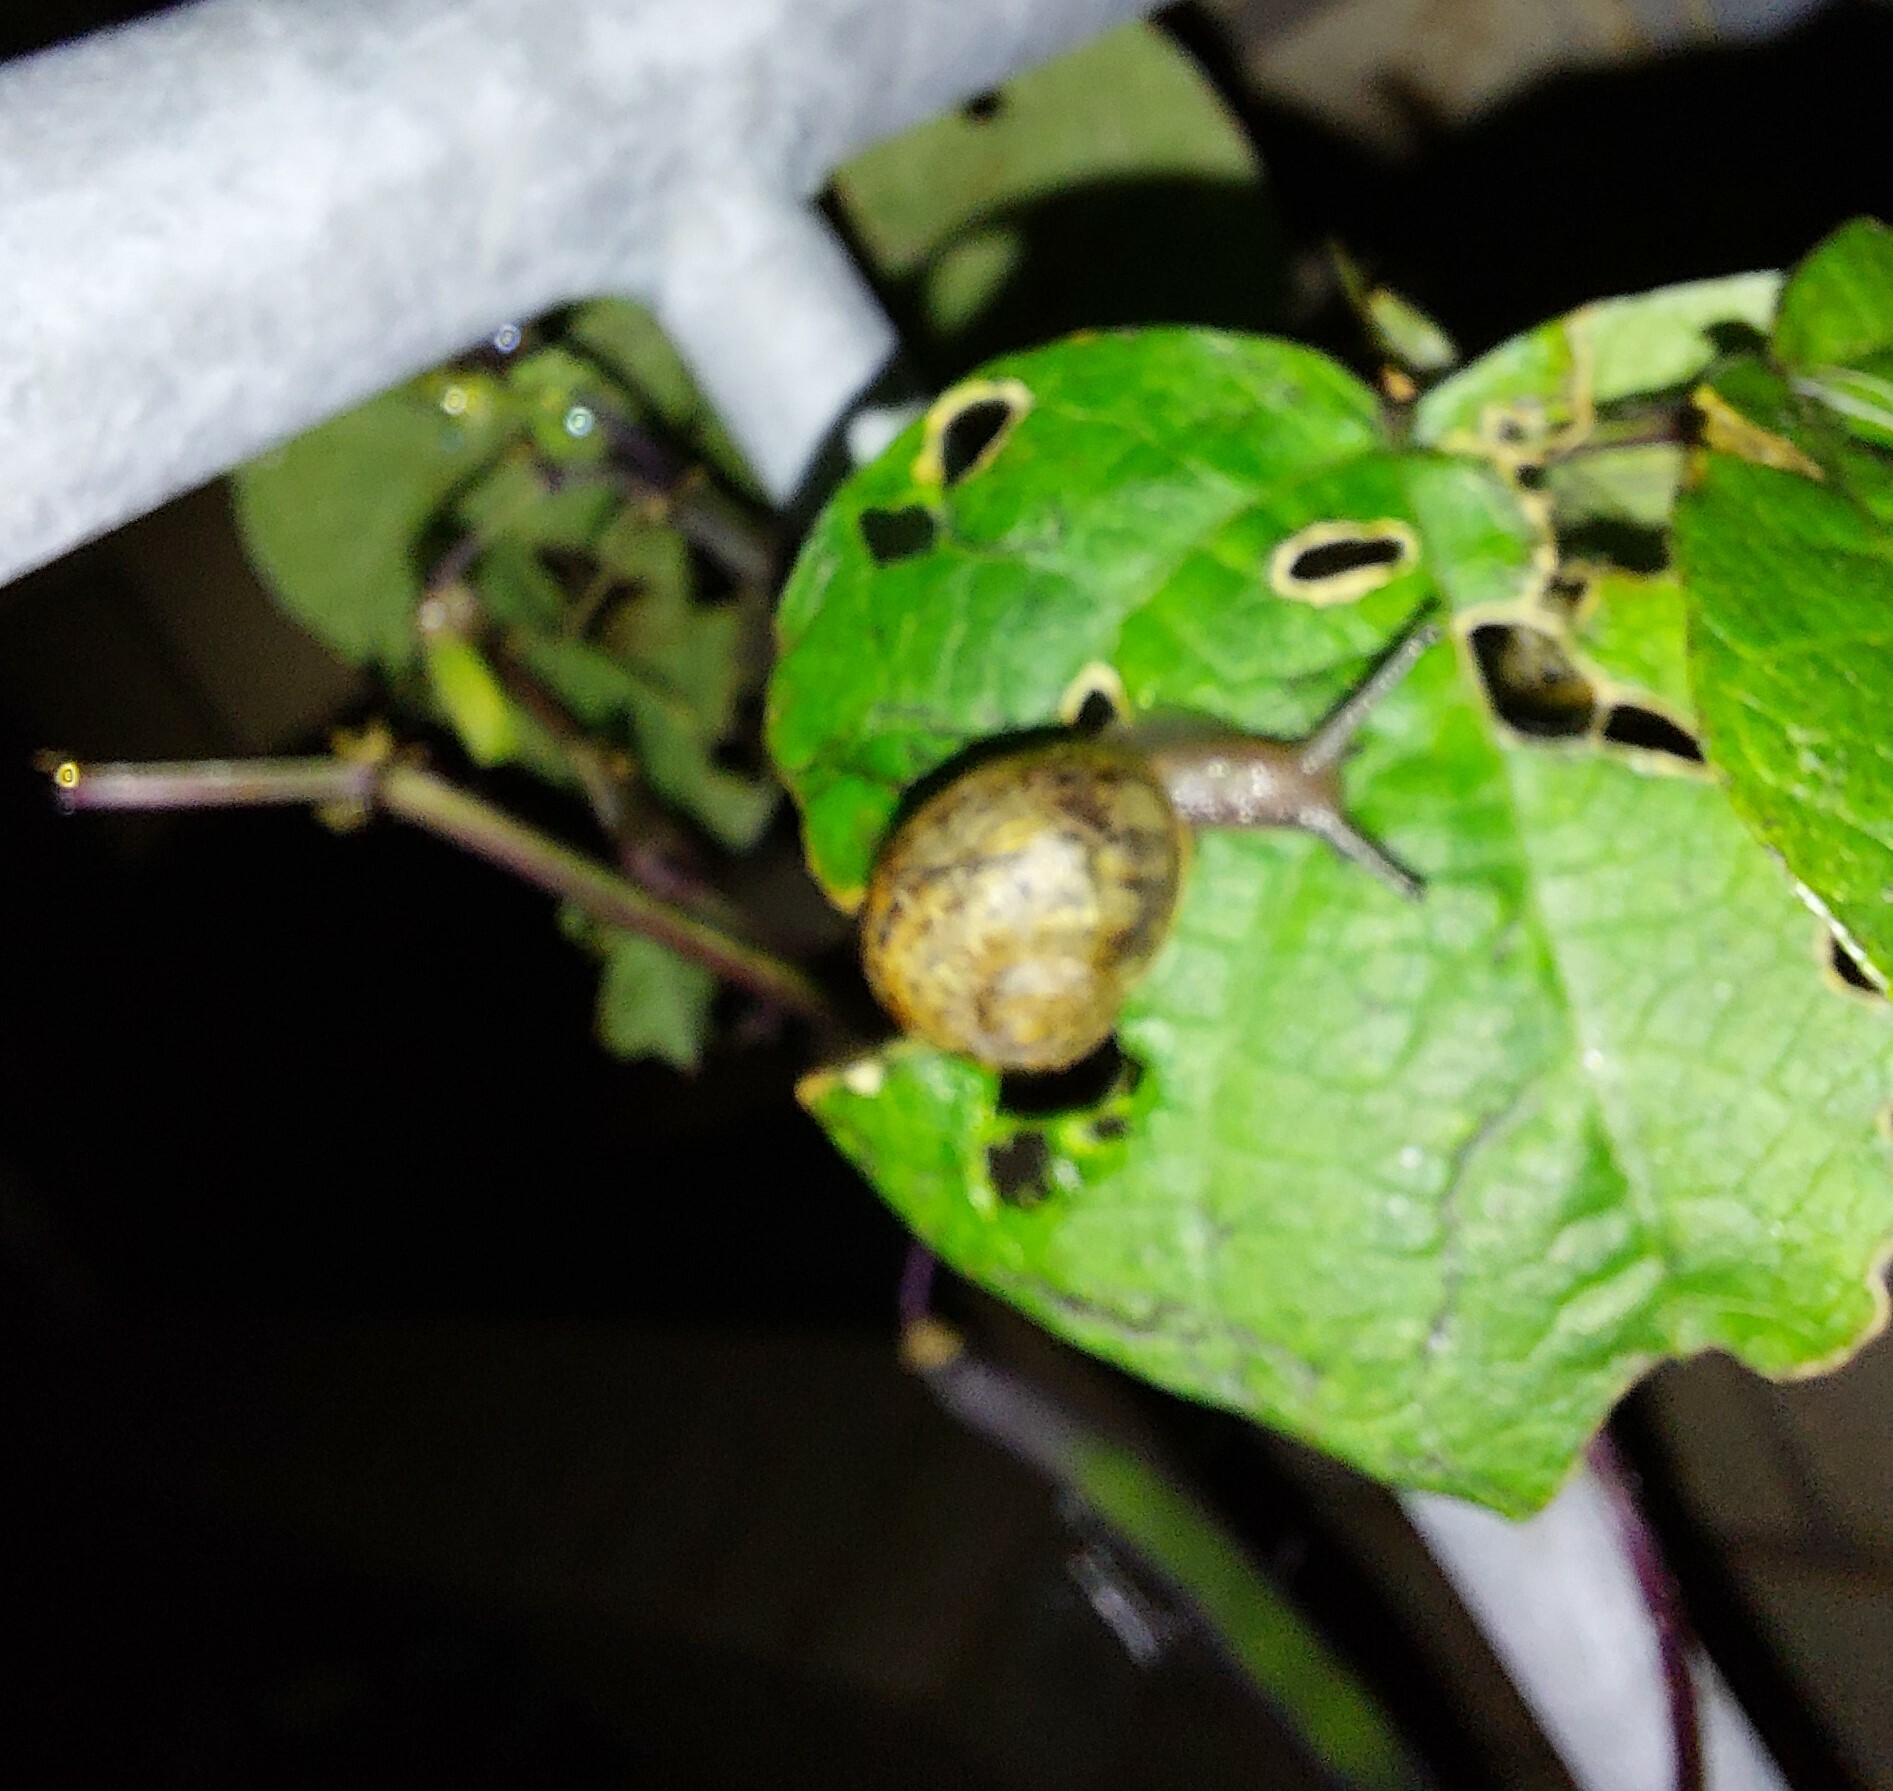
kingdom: Animalia
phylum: Mollusca
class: Gastropoda
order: Stylommatophora
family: Helicidae
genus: Cornu
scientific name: Cornu aspersum
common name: Brown garden snail
